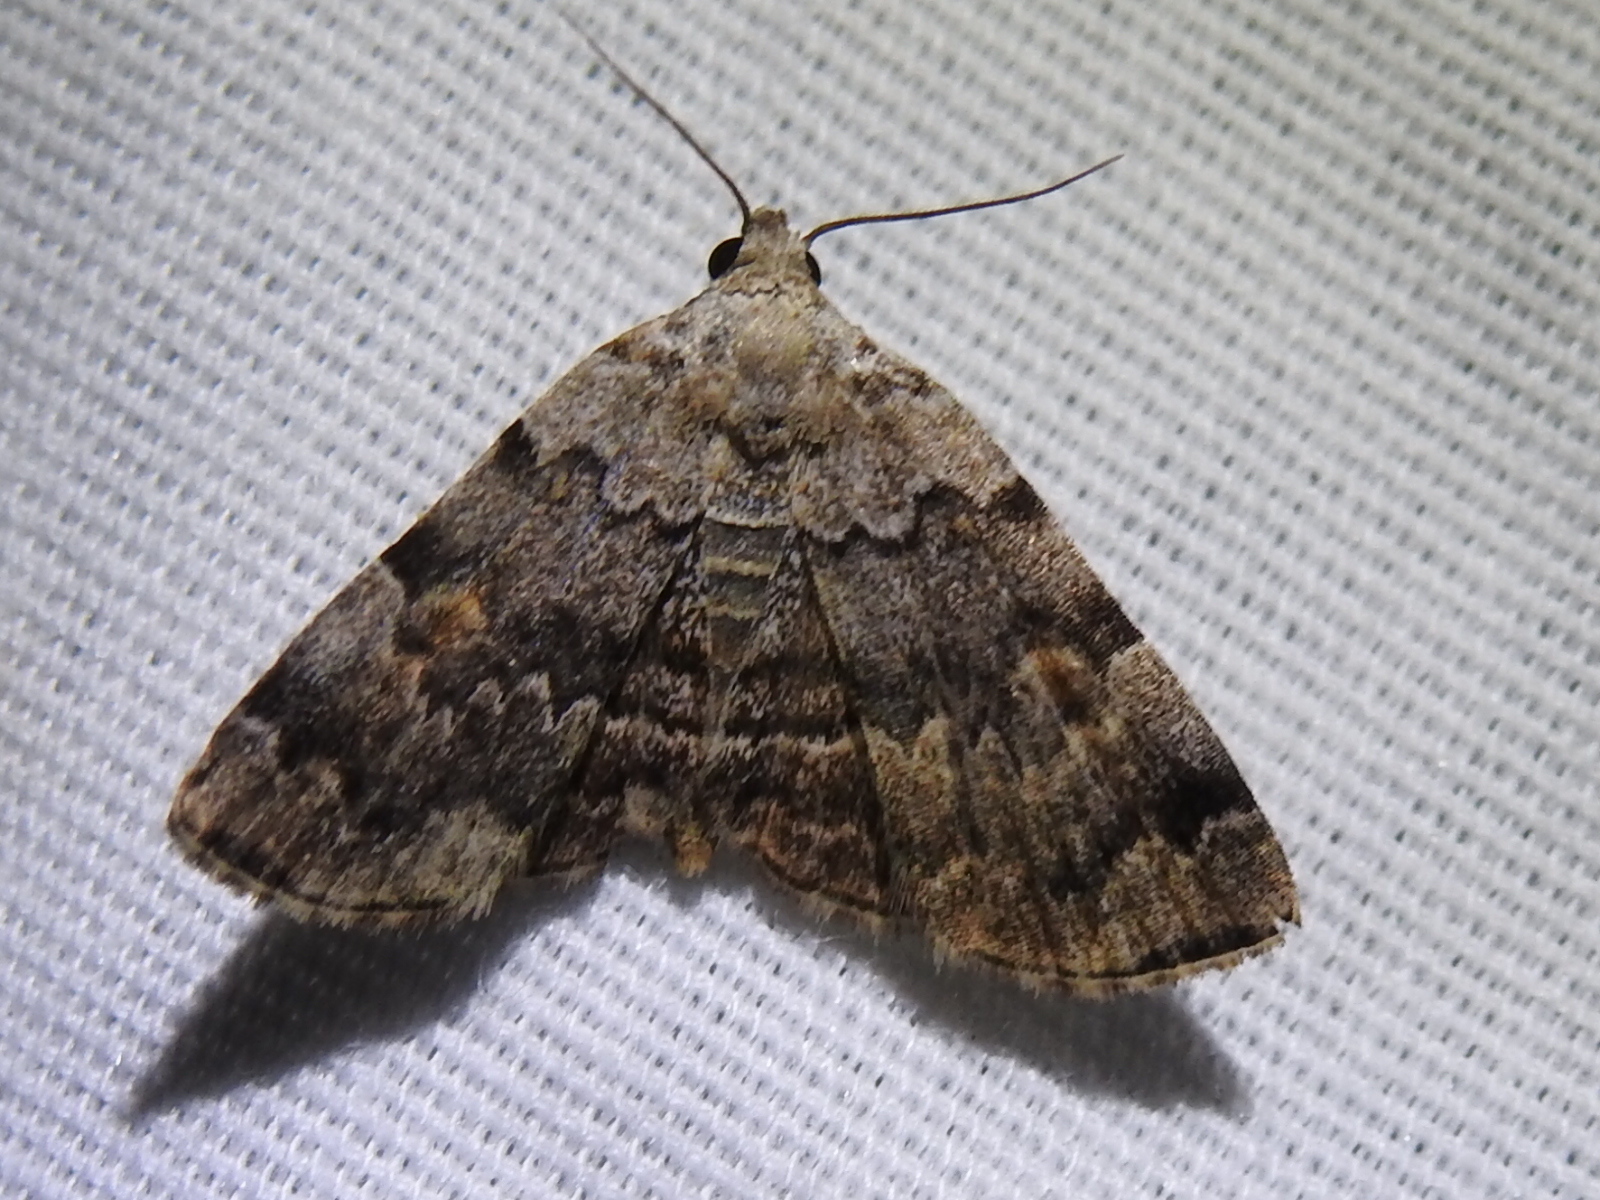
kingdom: Animalia
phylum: Arthropoda
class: Insecta
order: Lepidoptera
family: Erebidae
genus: Idia
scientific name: Idia americalis
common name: American idia moth
